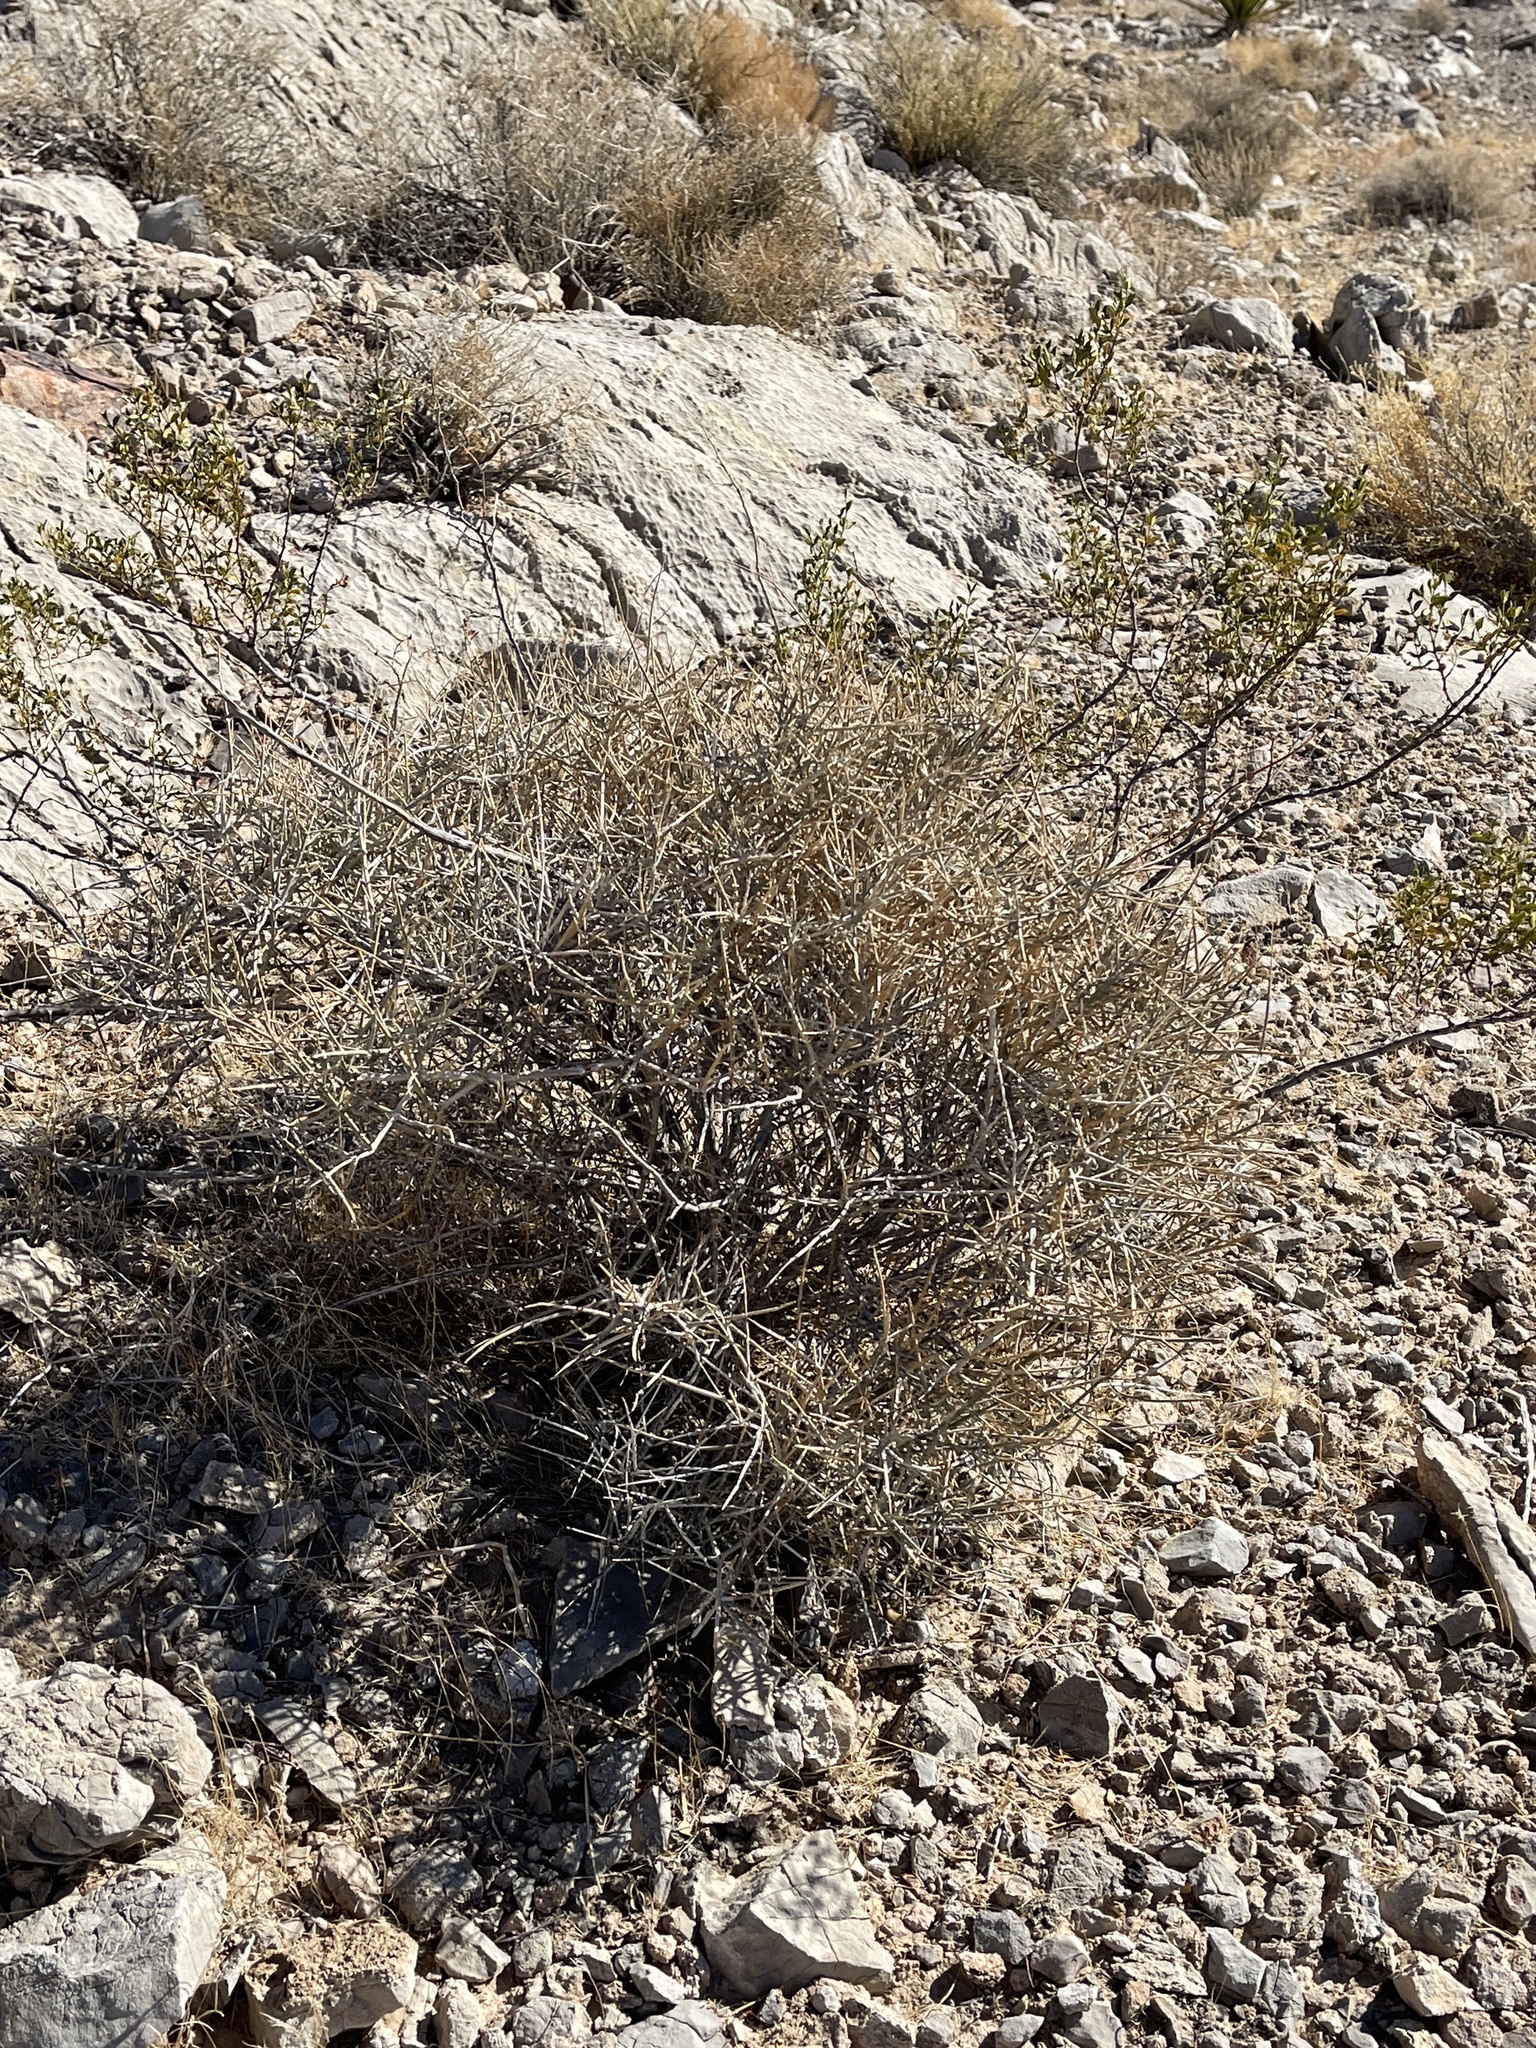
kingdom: Plantae
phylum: Tracheophyta
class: Gnetopsida
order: Ephedrales
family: Ephedraceae
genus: Ephedra
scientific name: Ephedra nevadensis
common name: Gray ephedra
